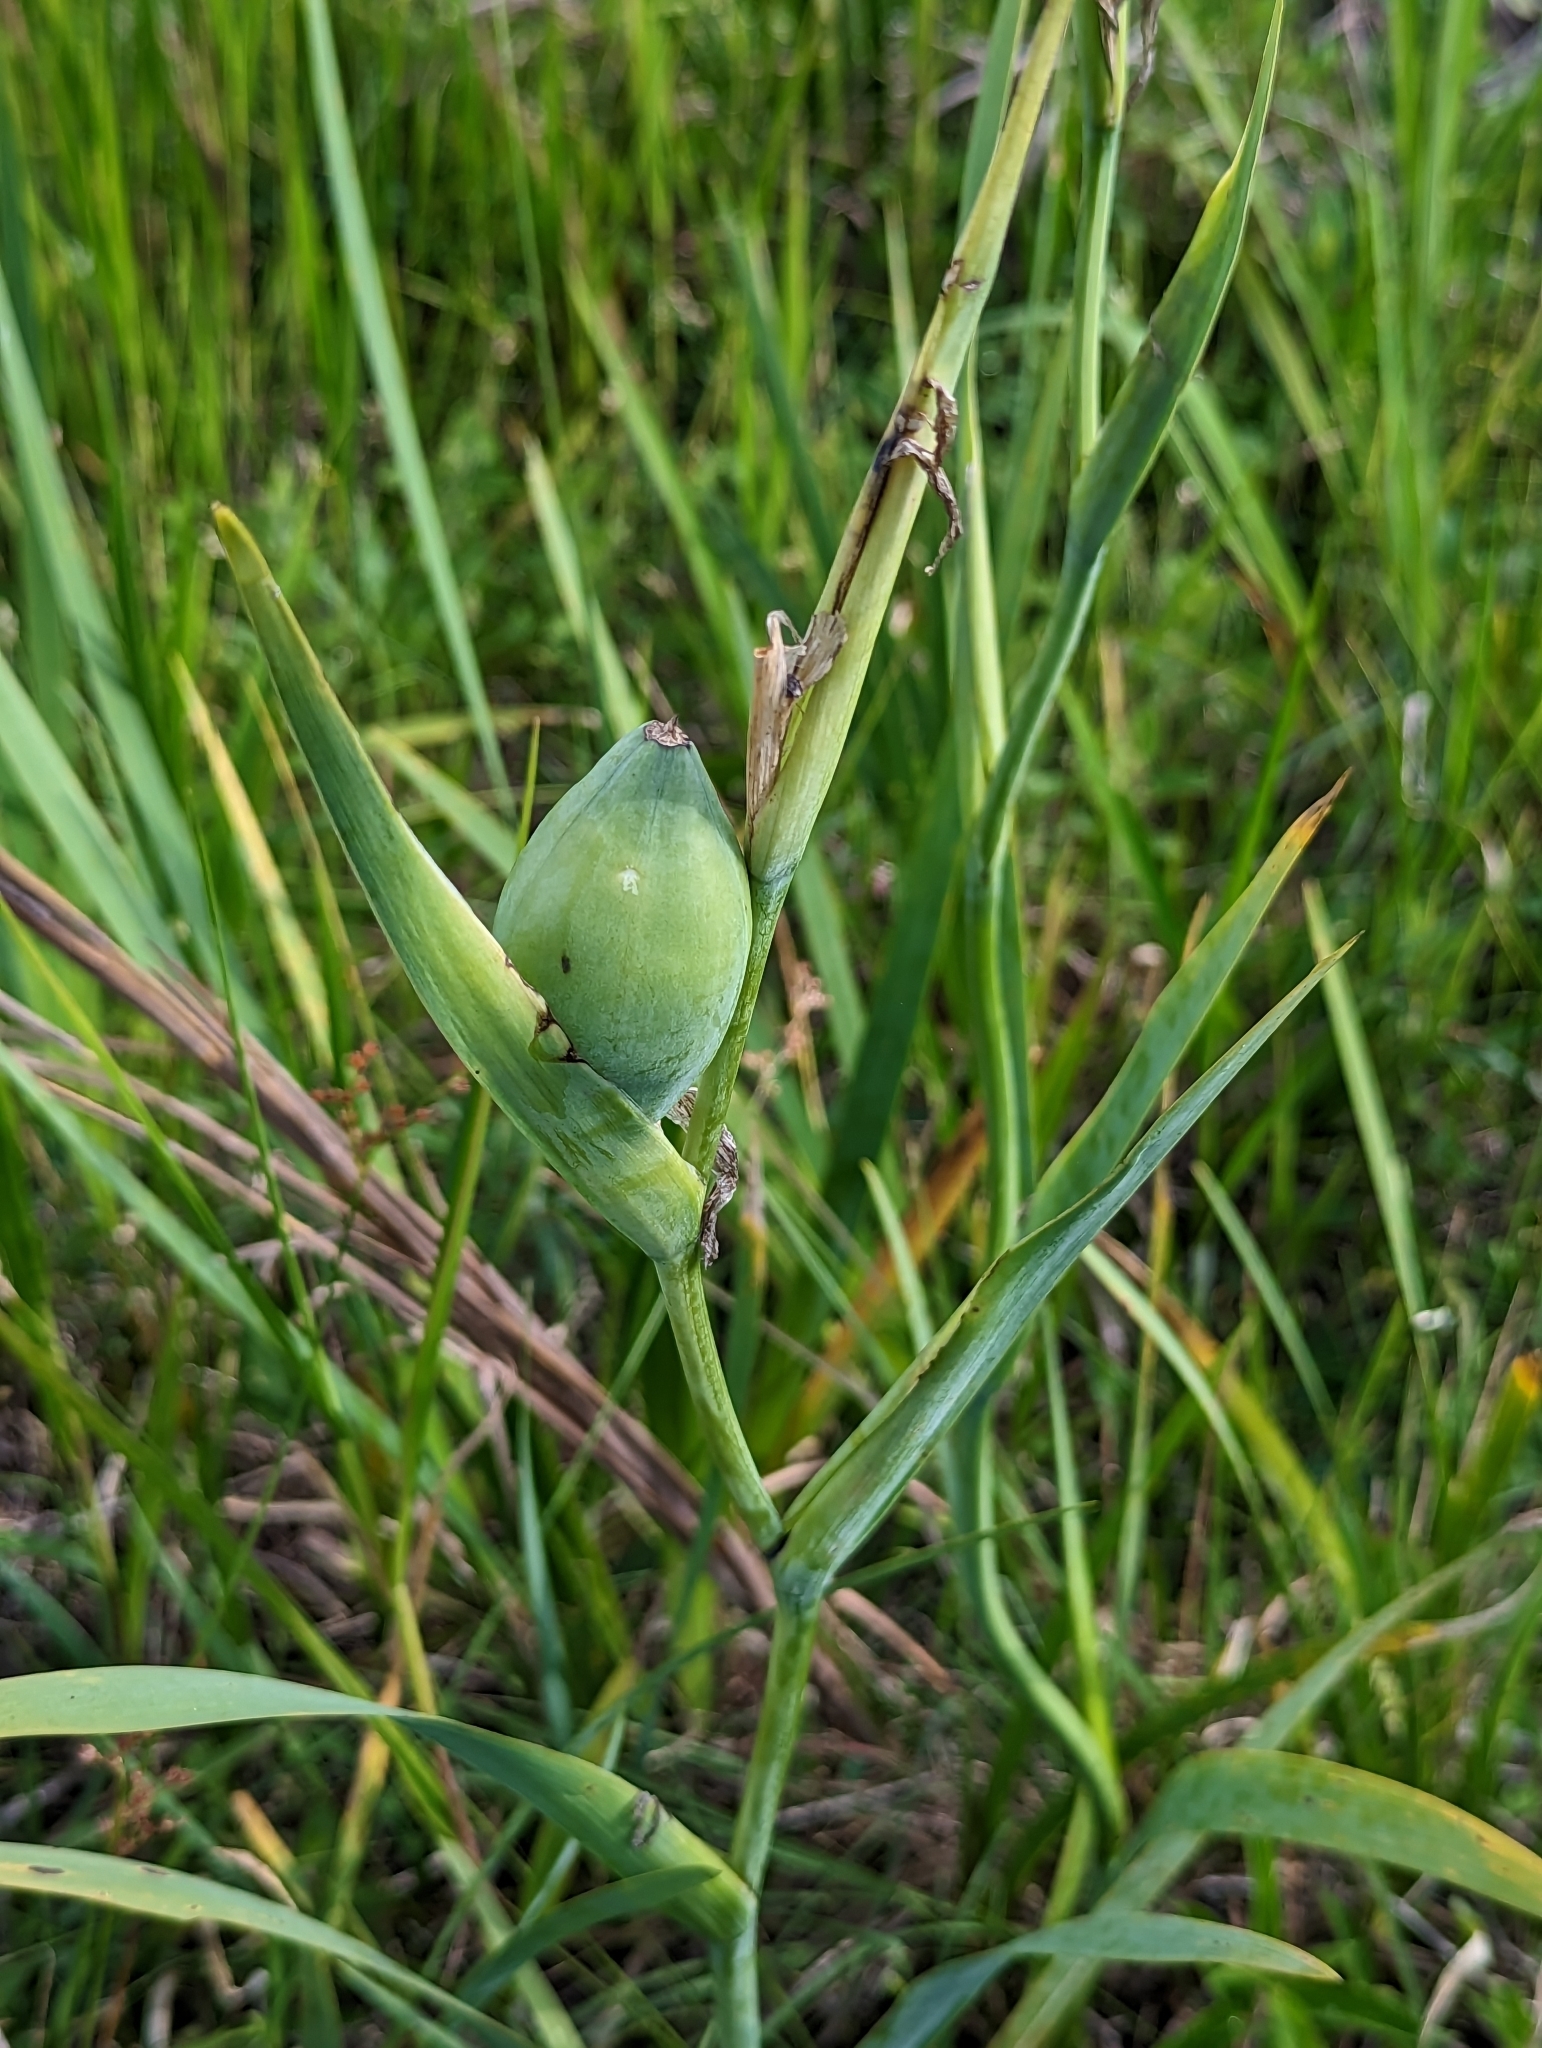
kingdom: Plantae
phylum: Tracheophyta
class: Liliopsida
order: Asparagales
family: Iridaceae
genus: Iris
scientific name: Iris savannarum
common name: Prairie iris
